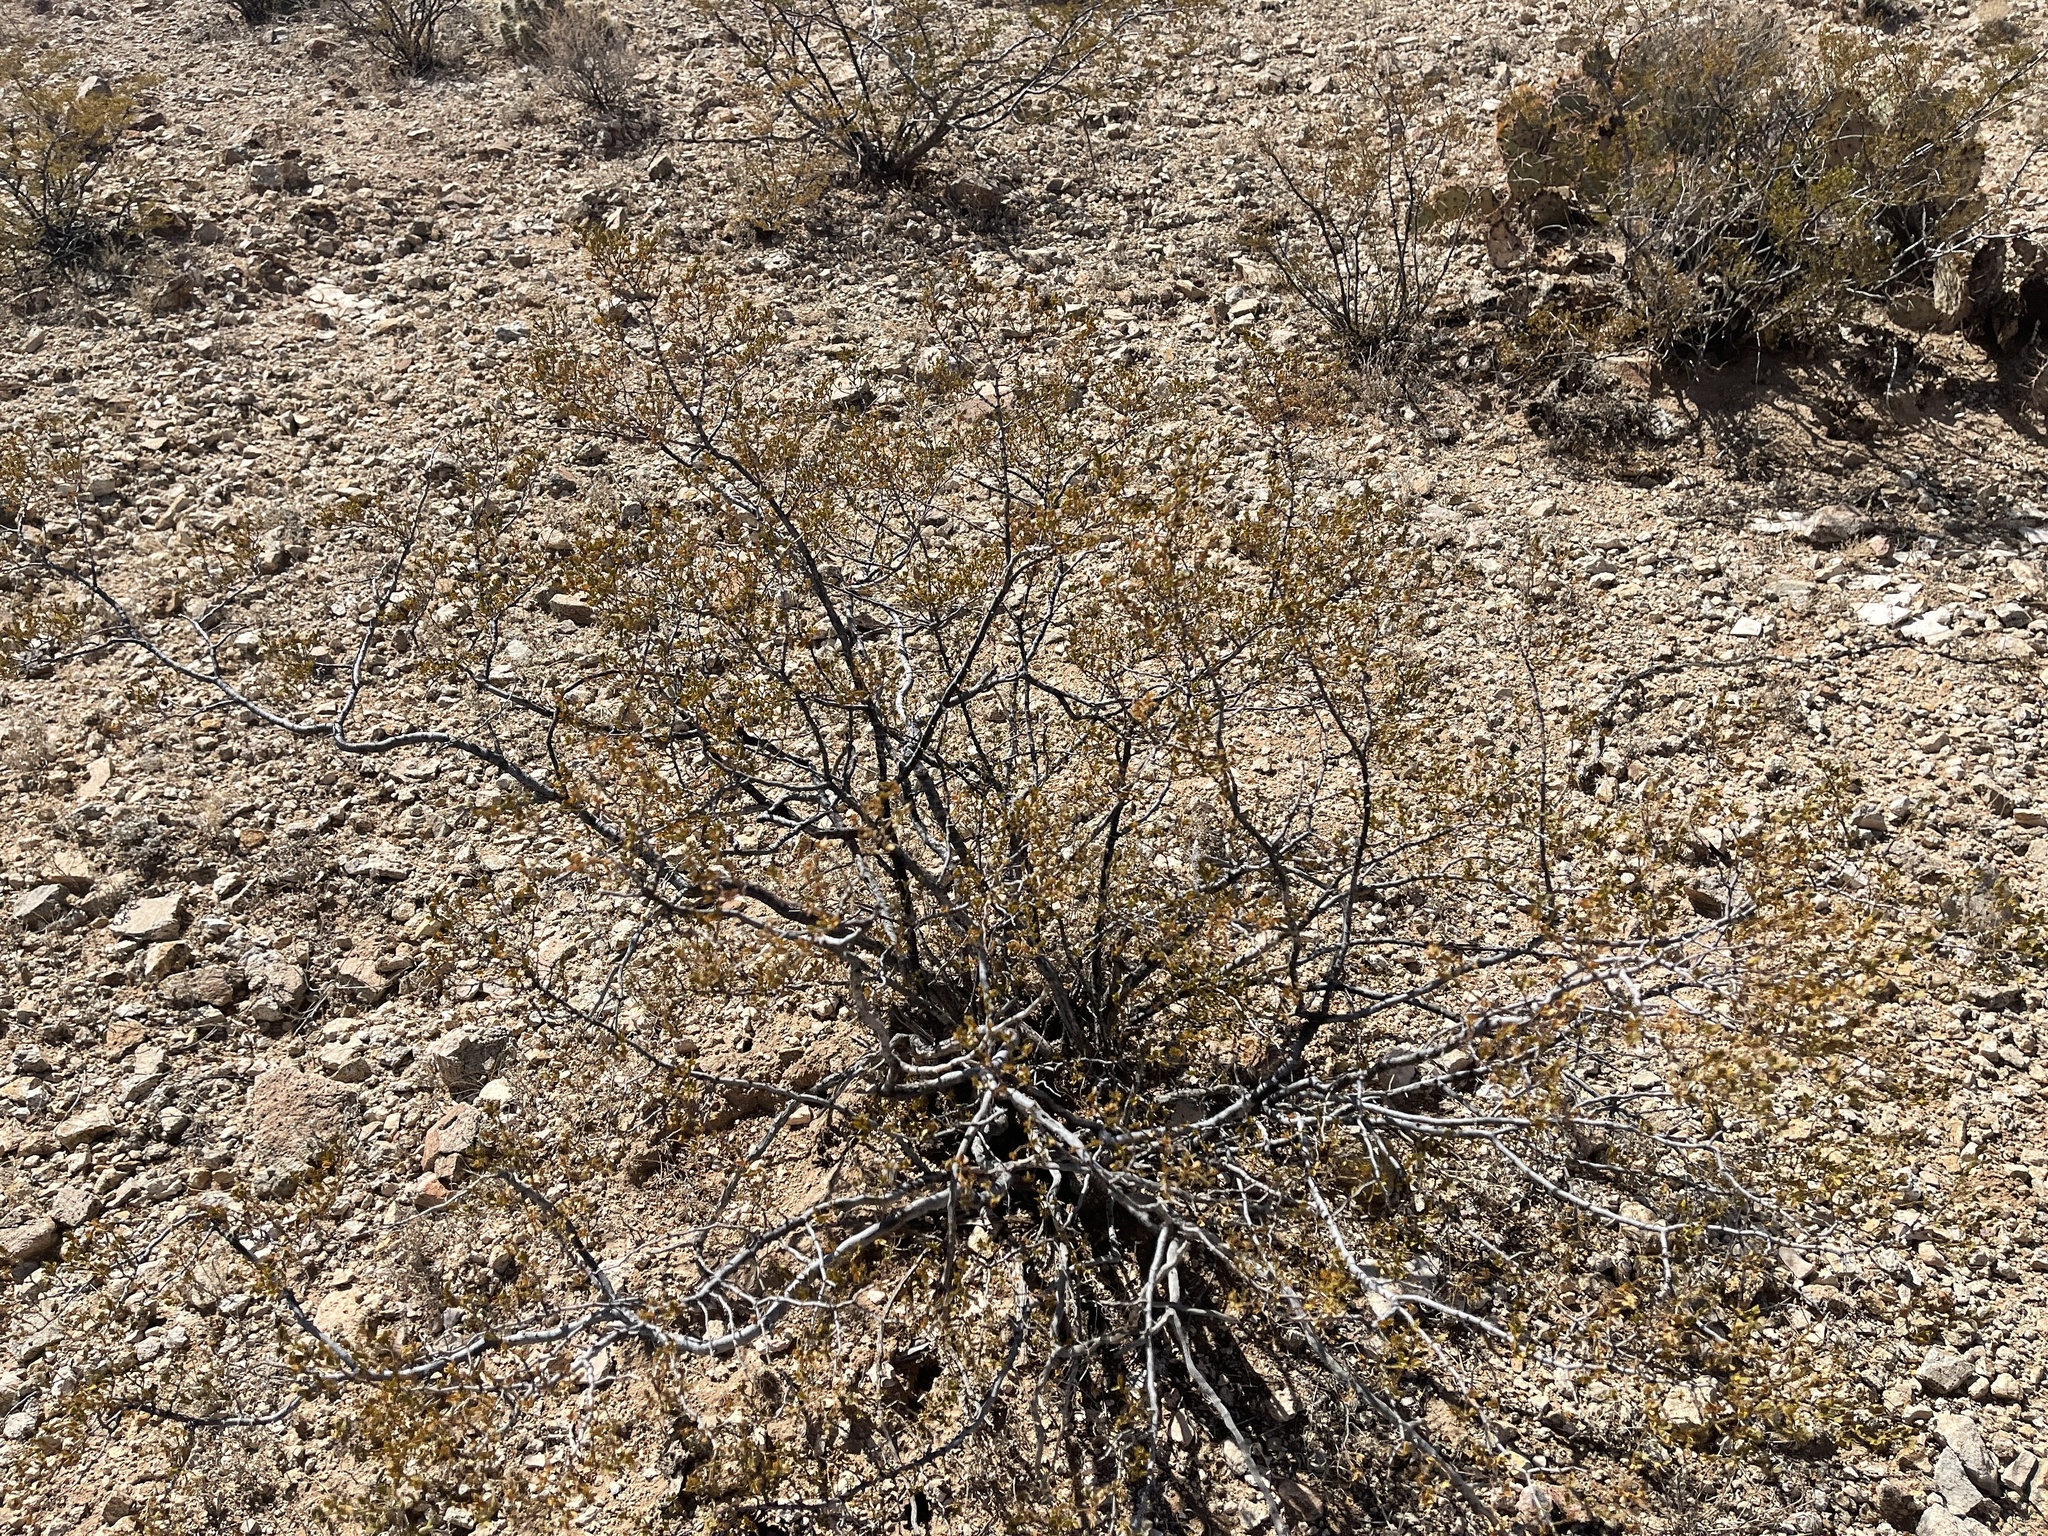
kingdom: Plantae
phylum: Tracheophyta
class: Magnoliopsida
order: Zygophyllales
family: Zygophyllaceae
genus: Larrea
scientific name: Larrea tridentata
